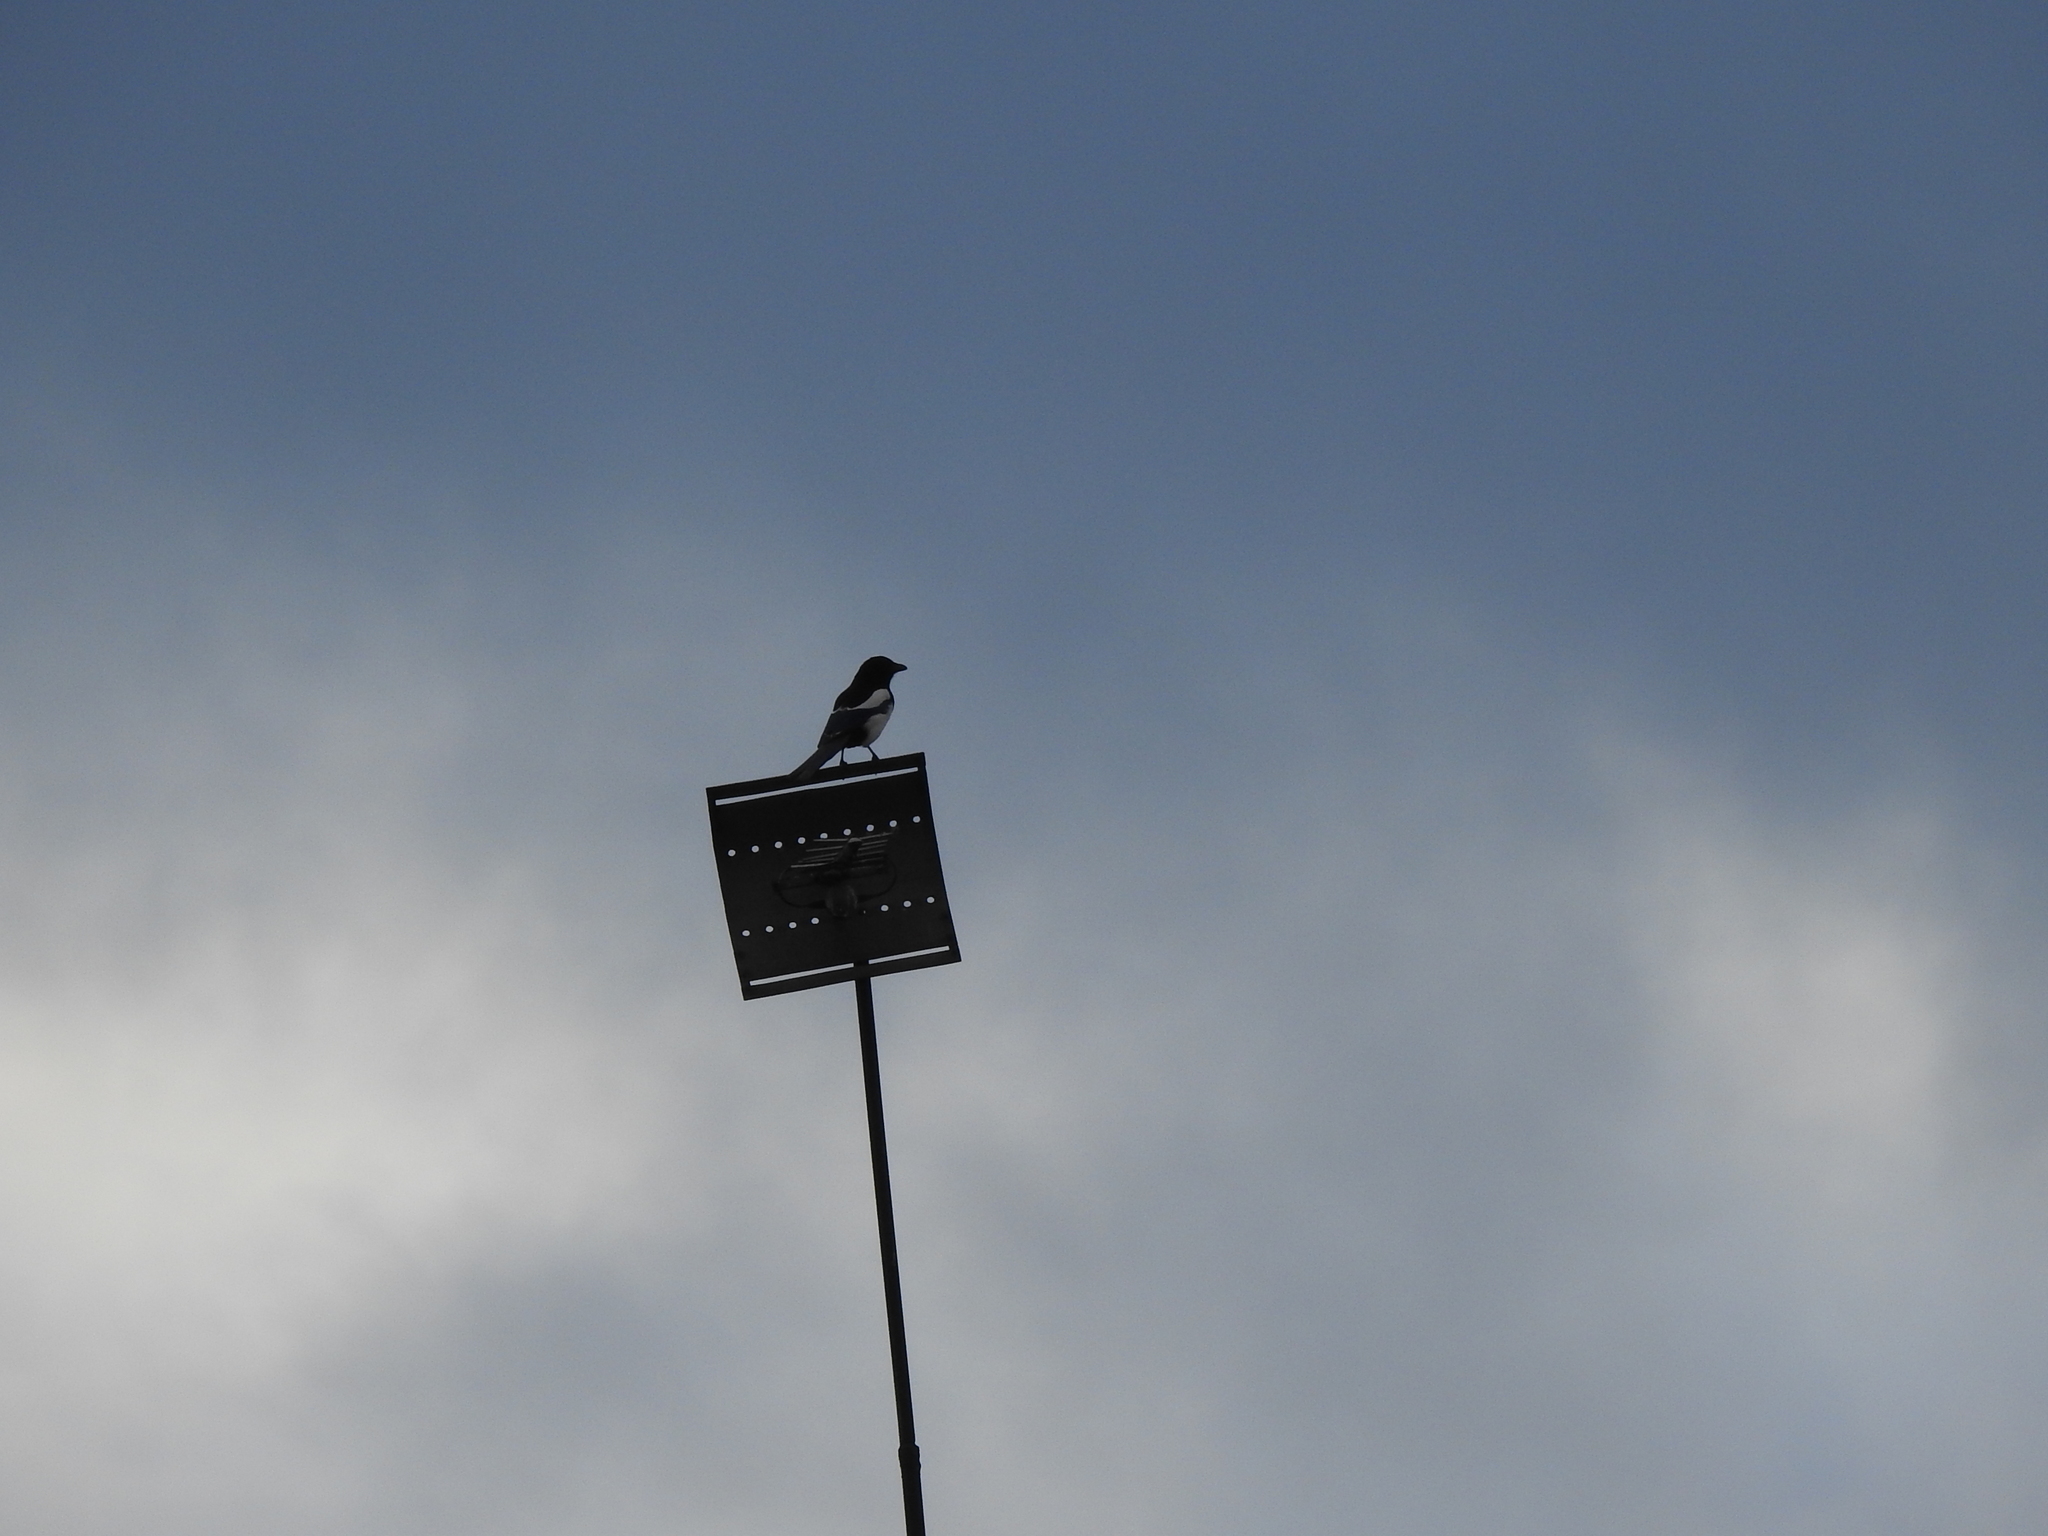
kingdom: Animalia
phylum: Chordata
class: Aves
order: Passeriformes
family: Corvidae
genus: Pica
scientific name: Pica pica
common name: Eurasian magpie
